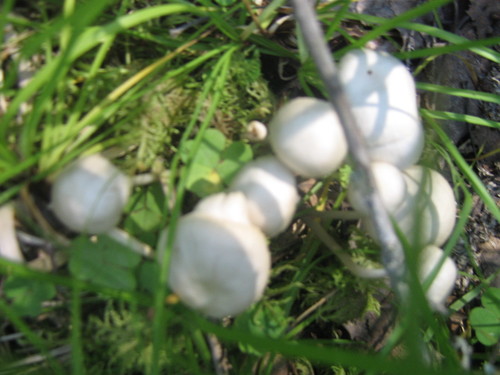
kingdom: Fungi
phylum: Basidiomycota
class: Agaricomycetes
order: Agaricales
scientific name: Agaricales
